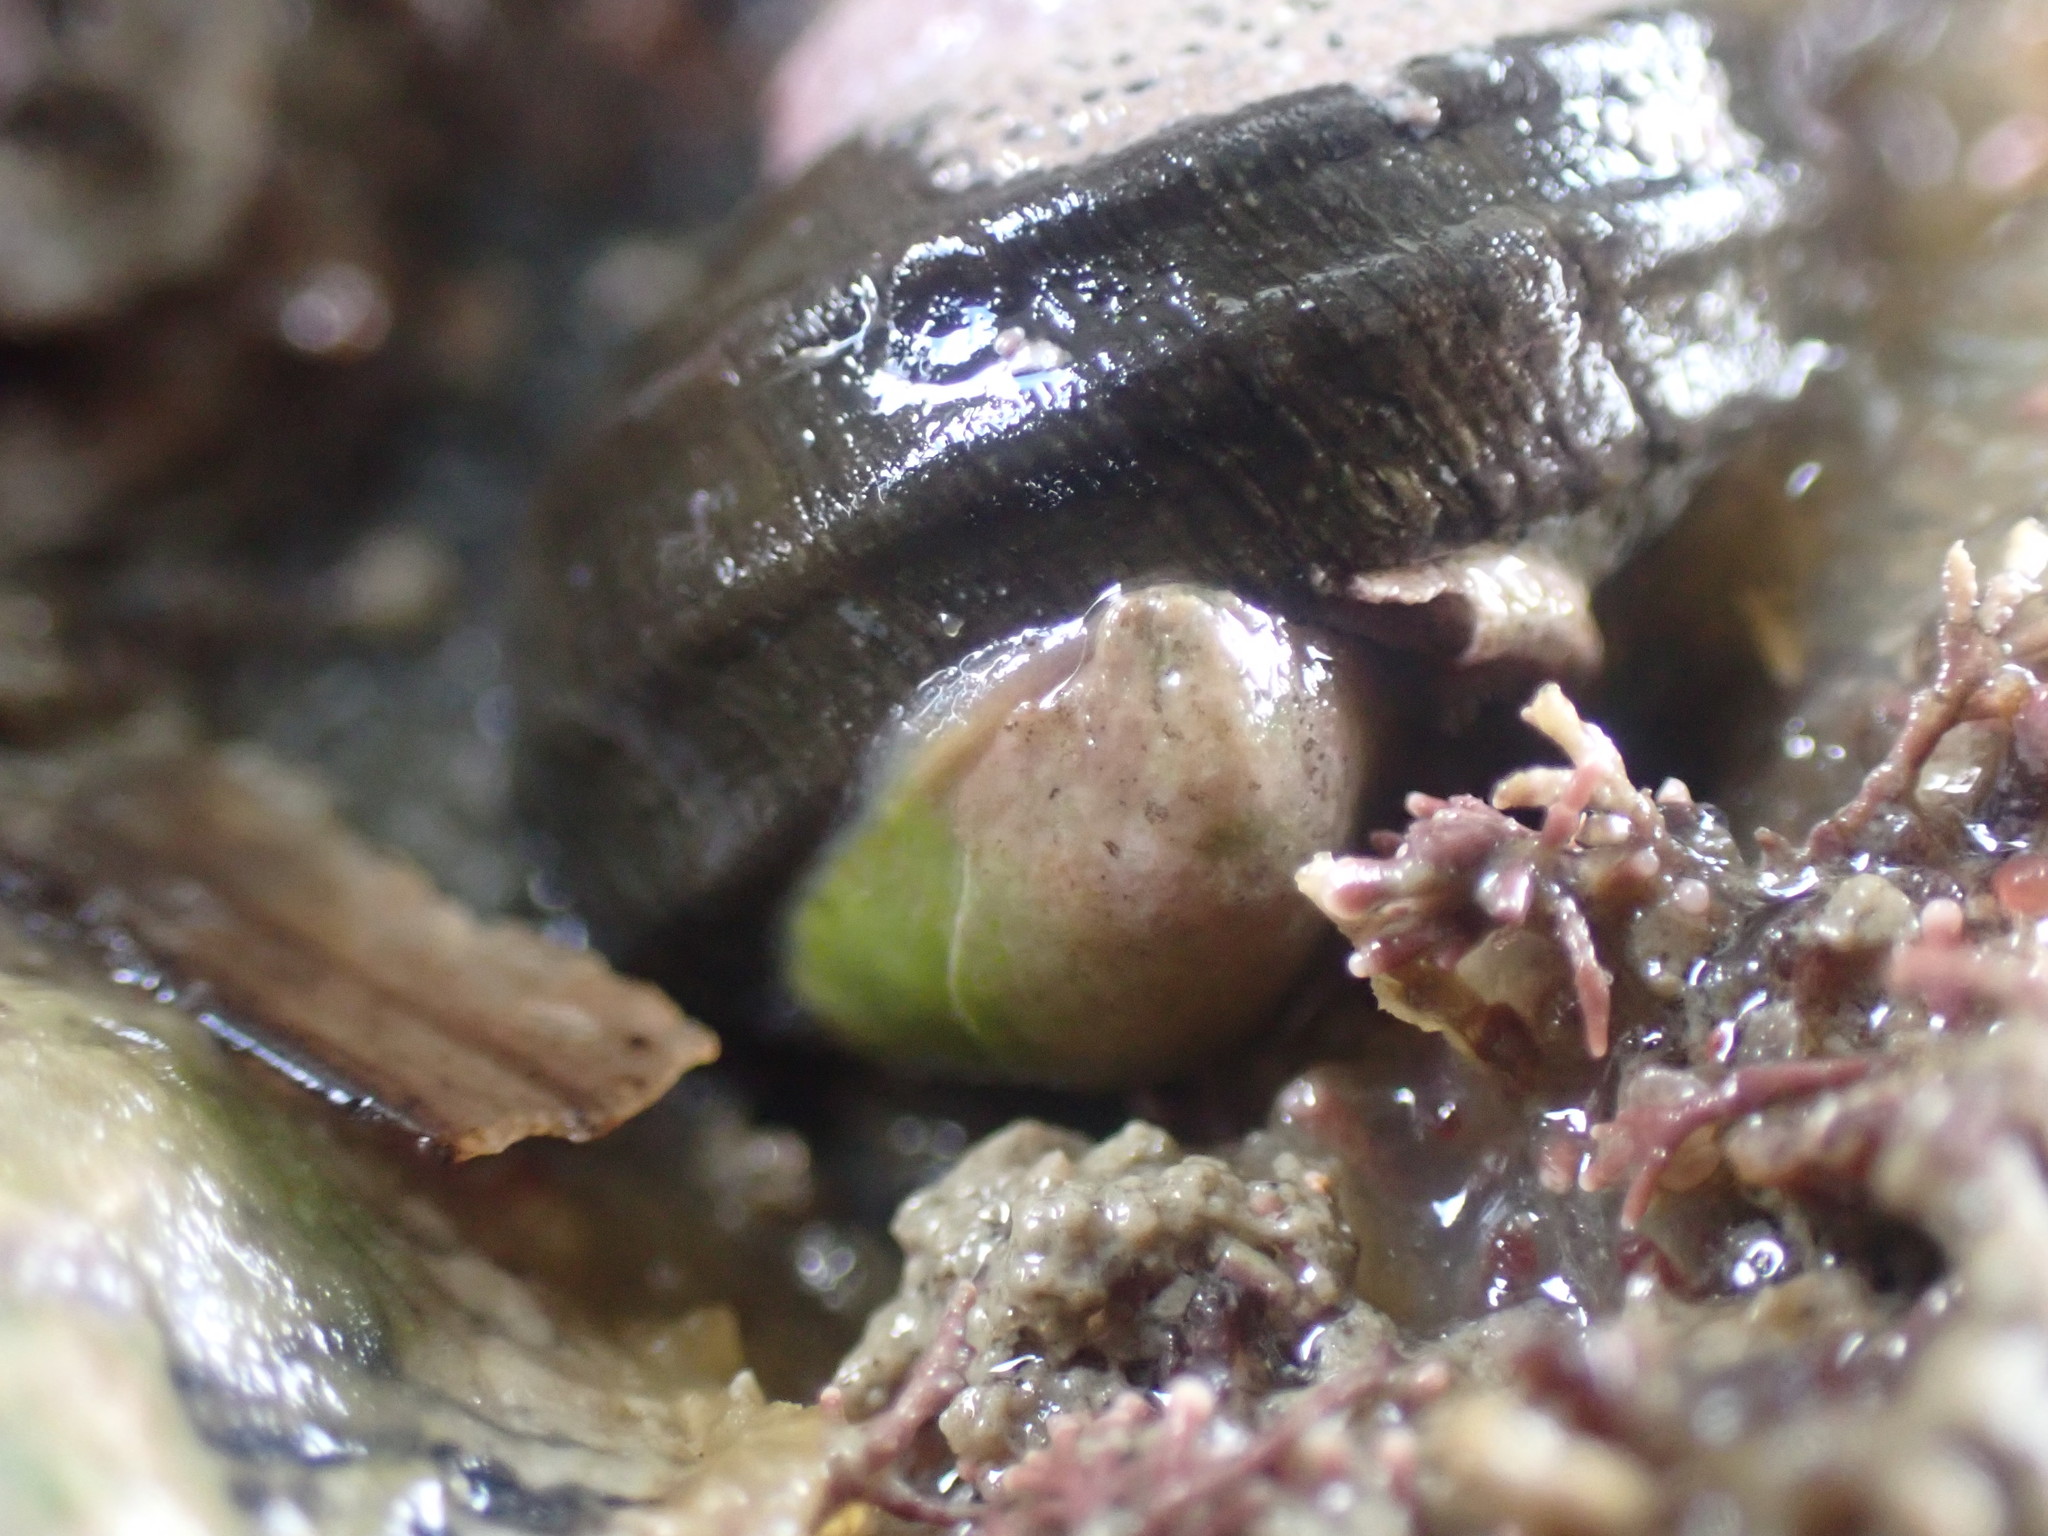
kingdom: Animalia
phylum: Mollusca
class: Gastropoda
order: Littorinimorpha
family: Calyptraeidae
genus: Maoricrypta
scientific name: Maoricrypta monoxyla
